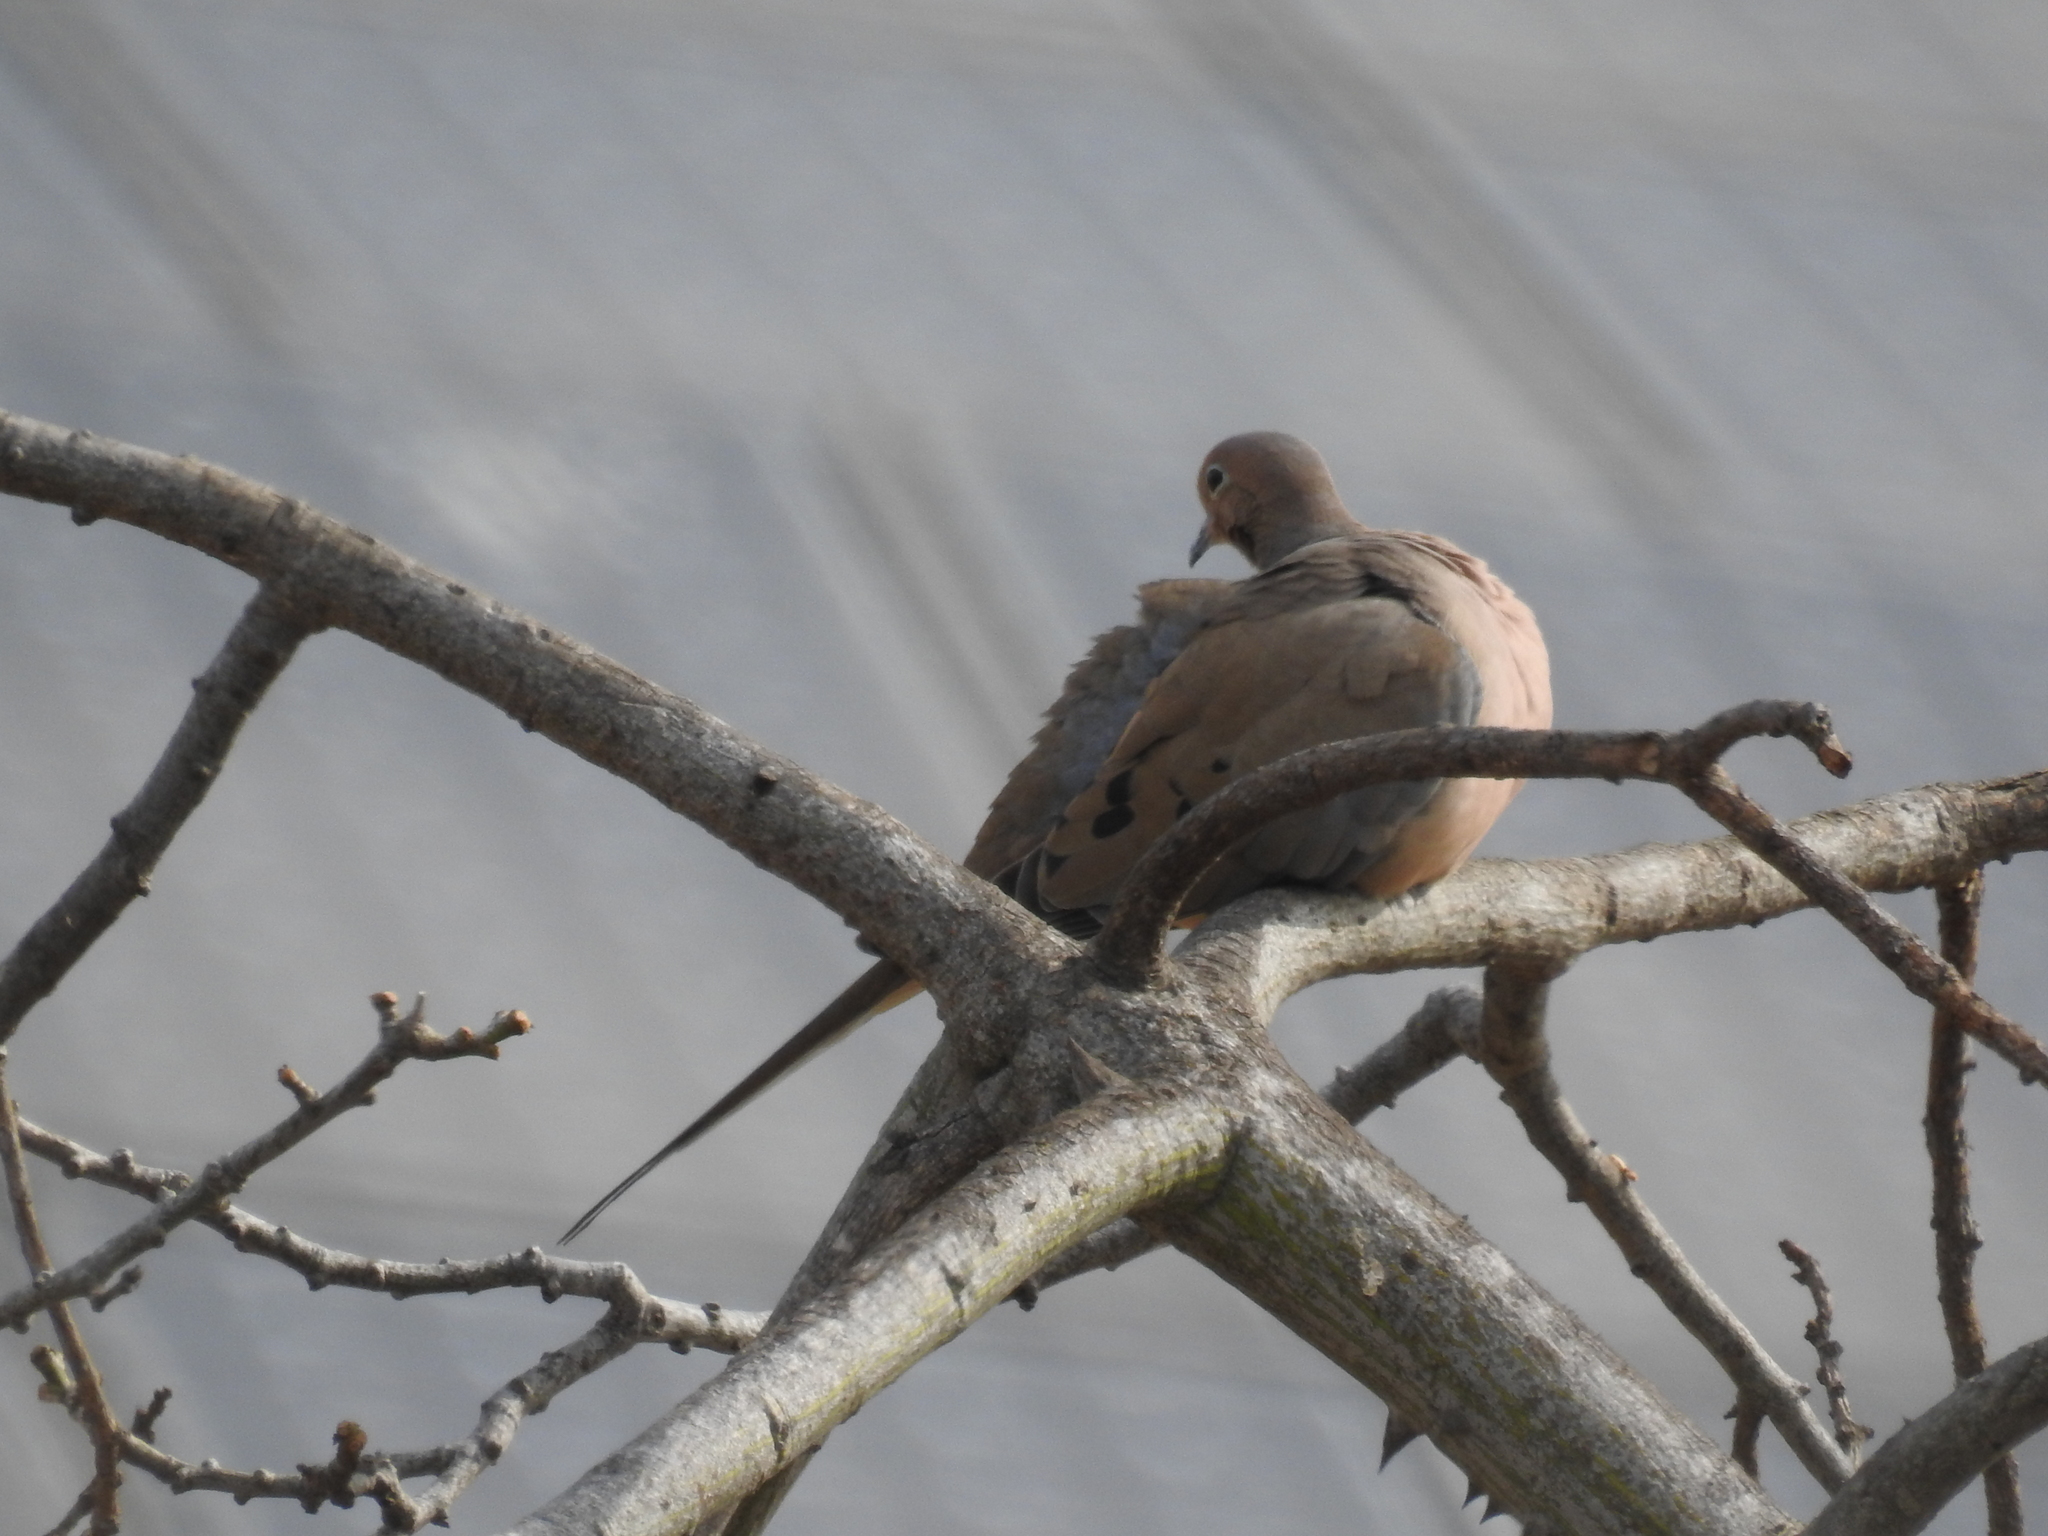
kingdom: Animalia
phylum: Chordata
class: Aves
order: Columbiformes
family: Columbidae
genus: Zenaida
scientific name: Zenaida macroura
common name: Mourning dove
